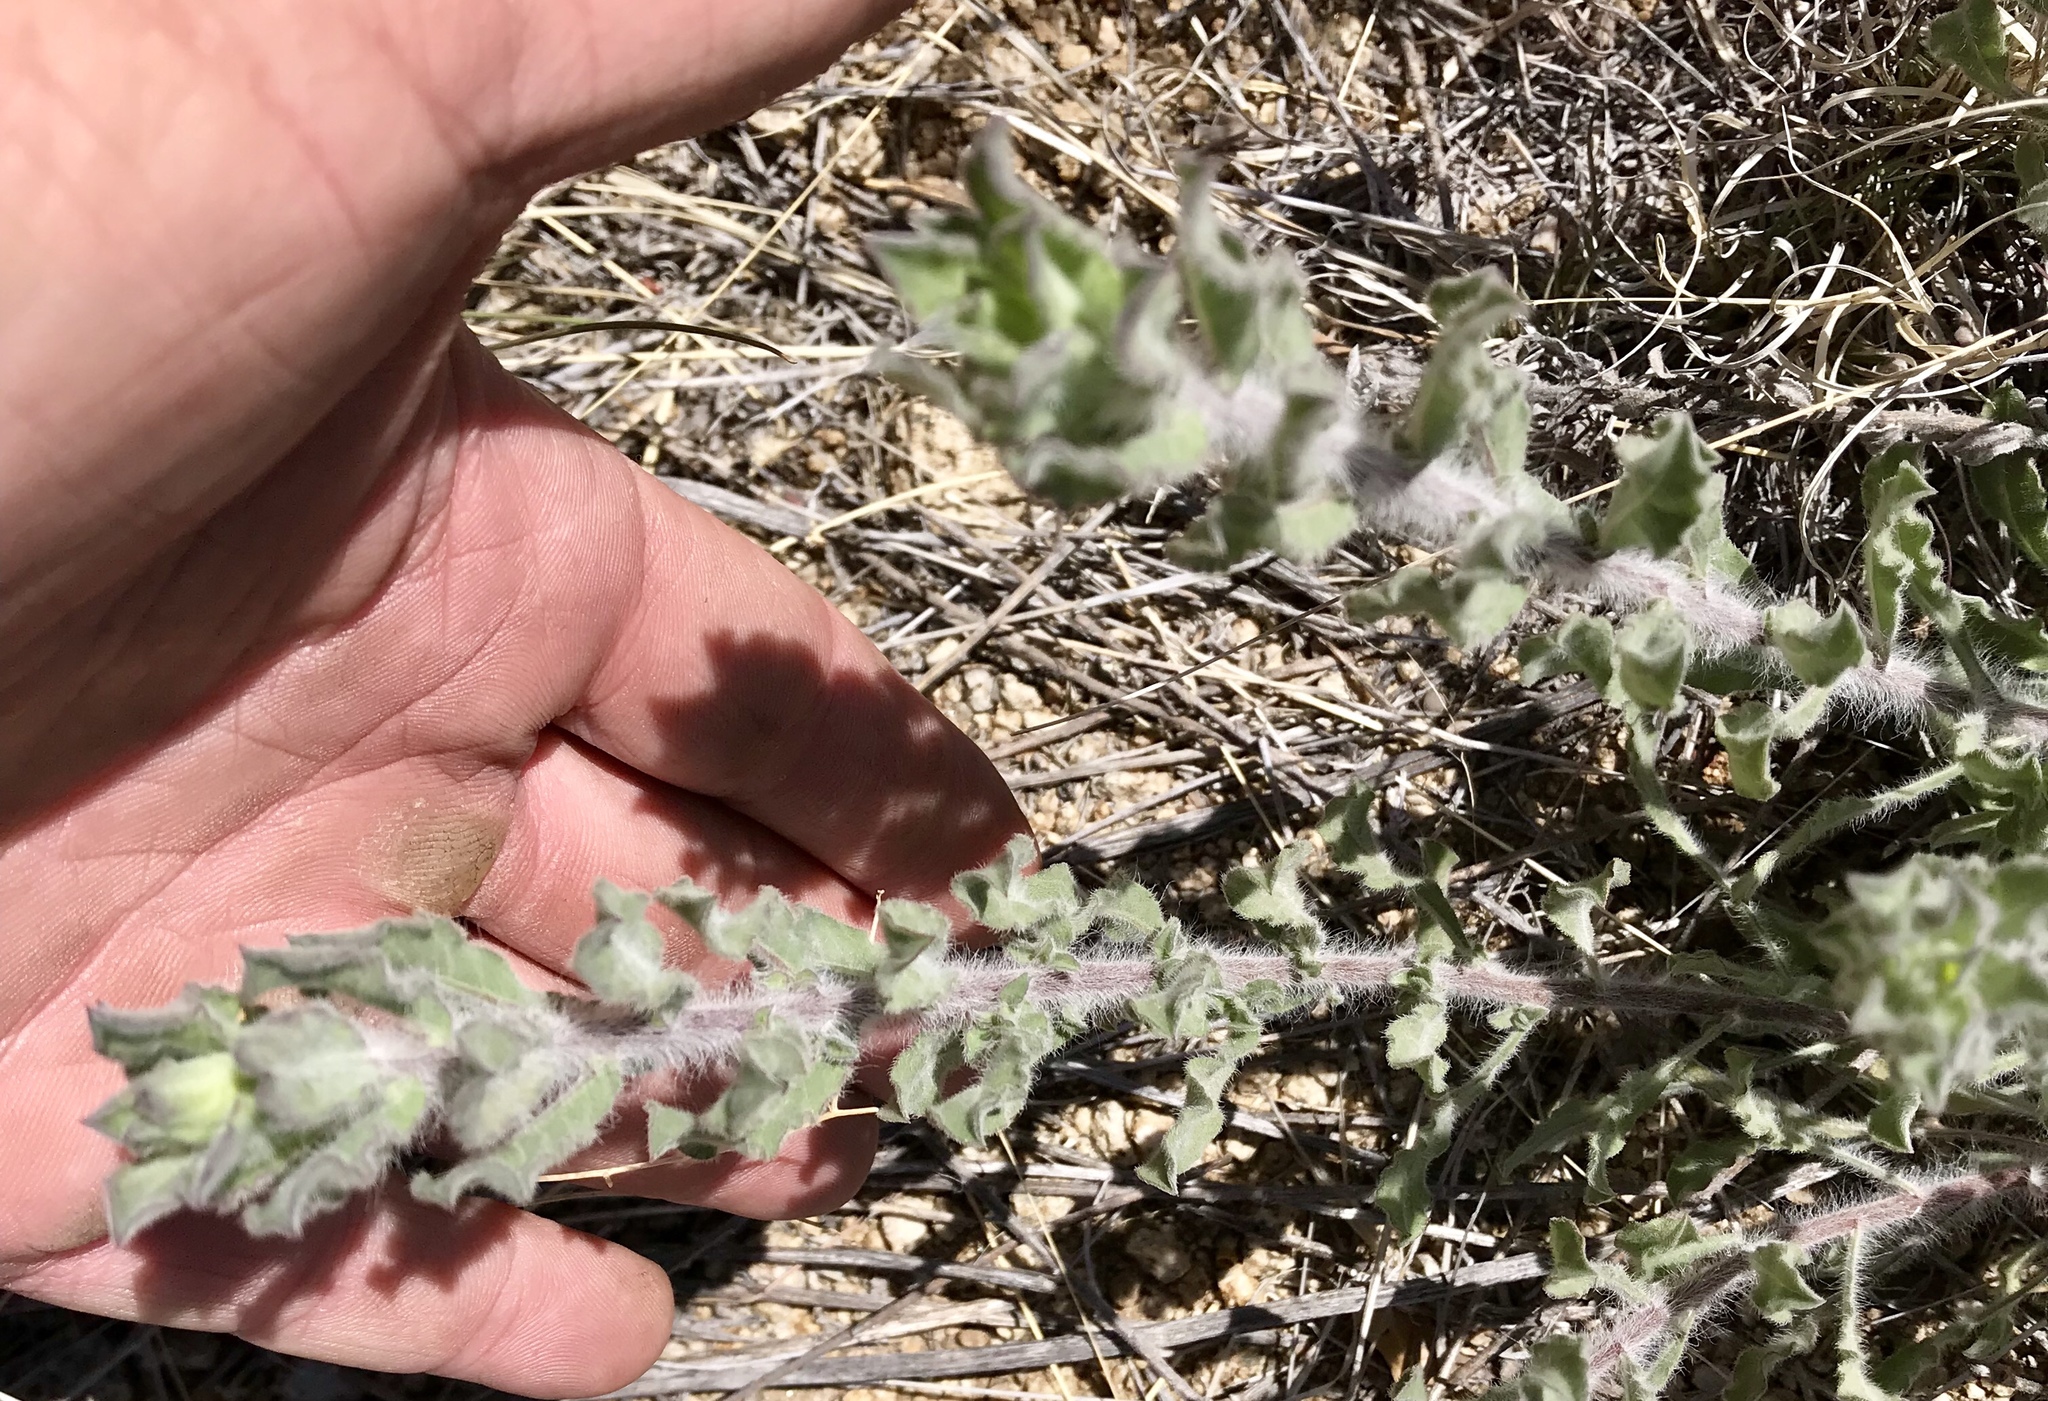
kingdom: Plantae
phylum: Tracheophyta
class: Magnoliopsida
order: Asterales
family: Asteraceae
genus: Heterotheca
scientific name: Heterotheca fulcrata
